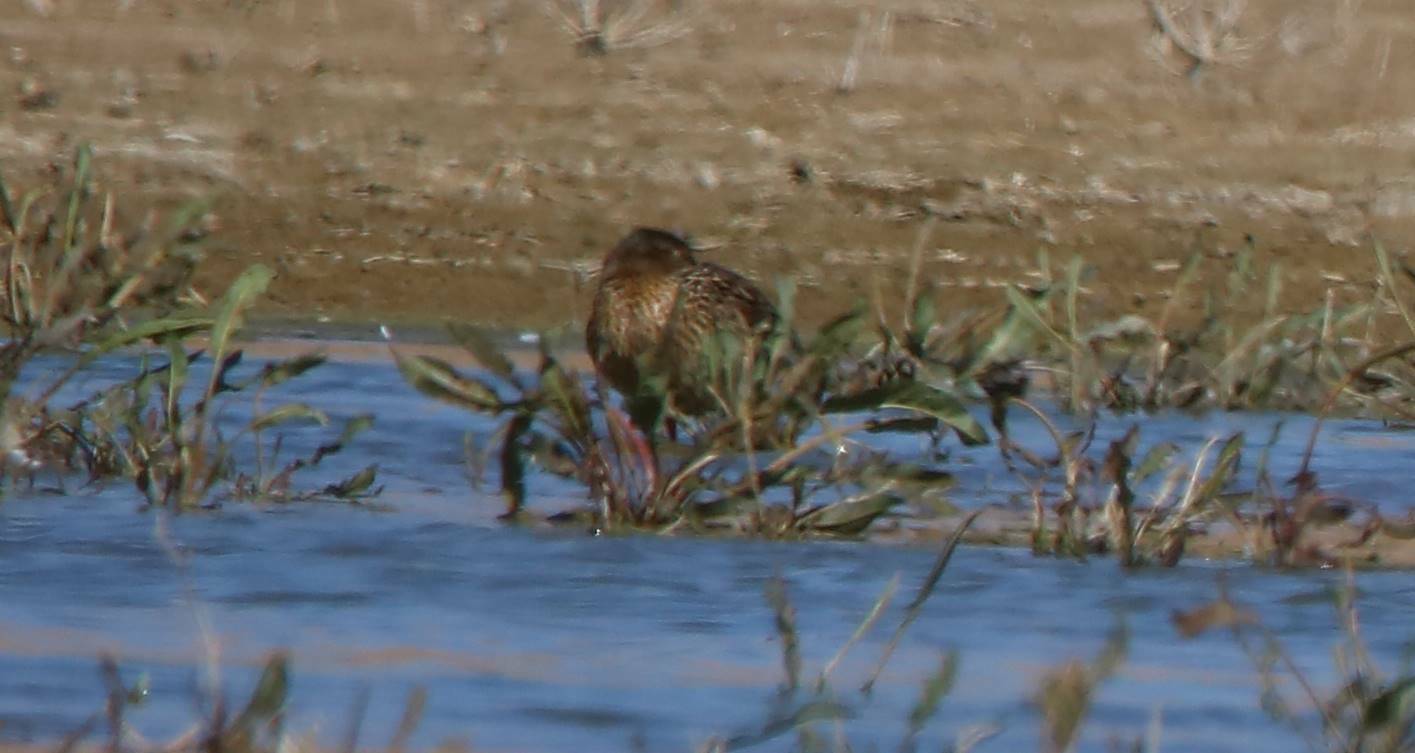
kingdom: Animalia
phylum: Chordata
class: Aves
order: Charadriiformes
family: Scolopacidae
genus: Calidris
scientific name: Calidris pugnax
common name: Ruff
